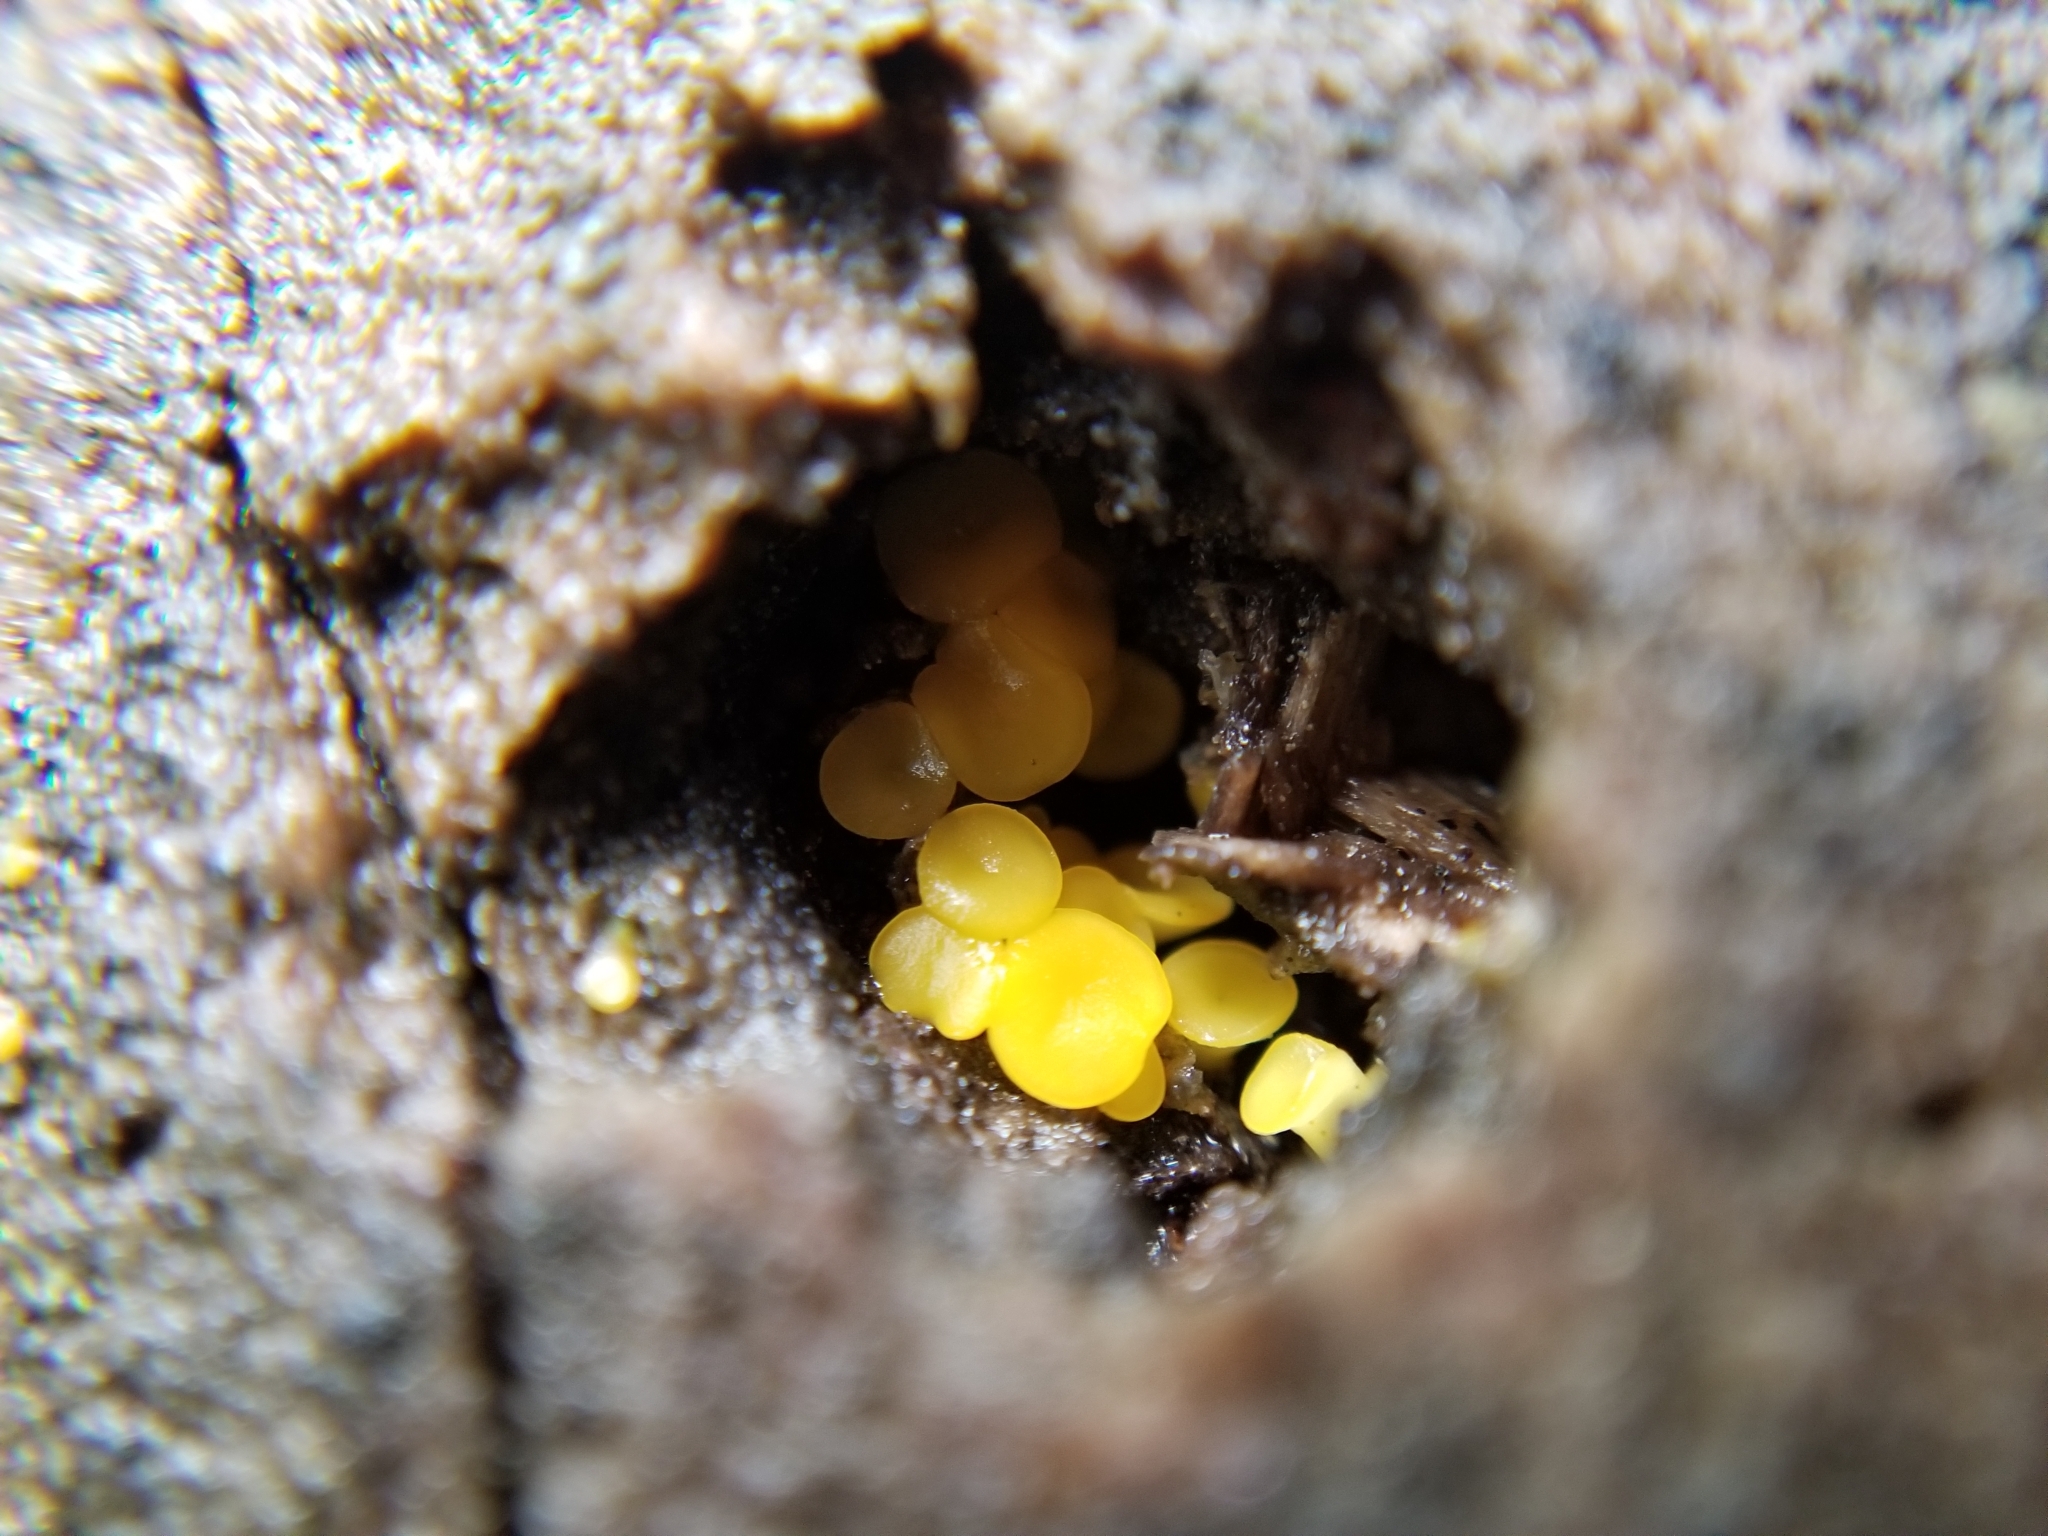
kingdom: Fungi
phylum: Ascomycota
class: Leotiomycetes
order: Helotiales
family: Pezizellaceae
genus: Calycina
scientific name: Calycina citrina
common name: Yellow fairy cups
